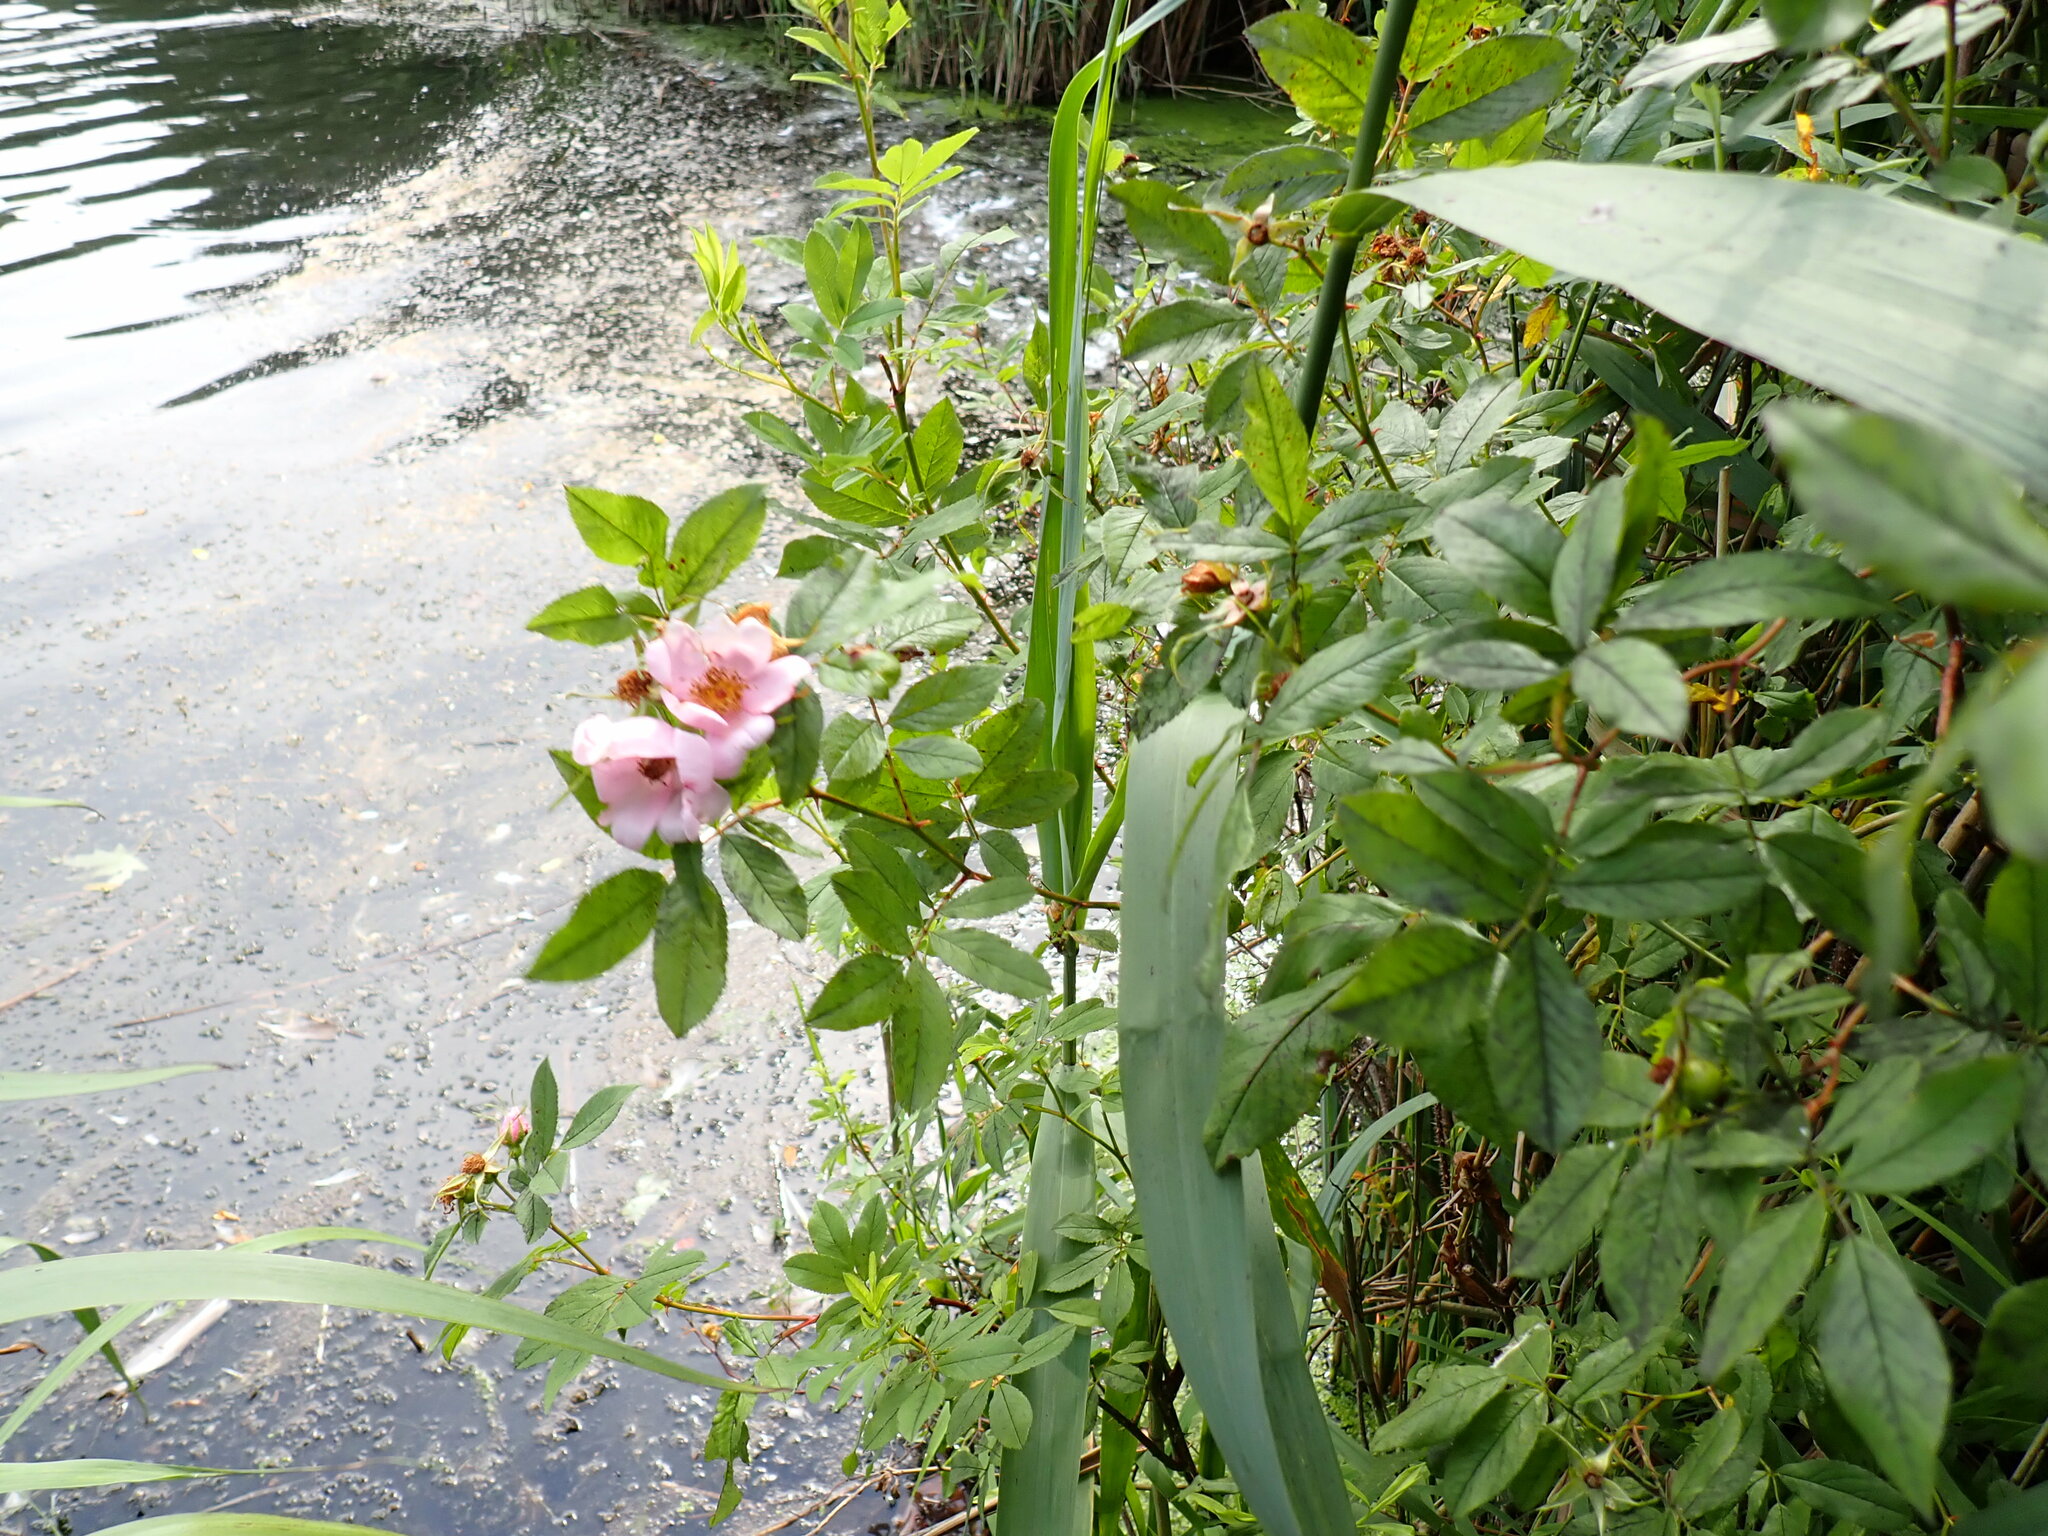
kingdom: Plantae
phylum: Tracheophyta
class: Magnoliopsida
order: Rosales
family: Rosaceae
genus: Rosa
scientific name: Rosa palustris
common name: Swamp rose
